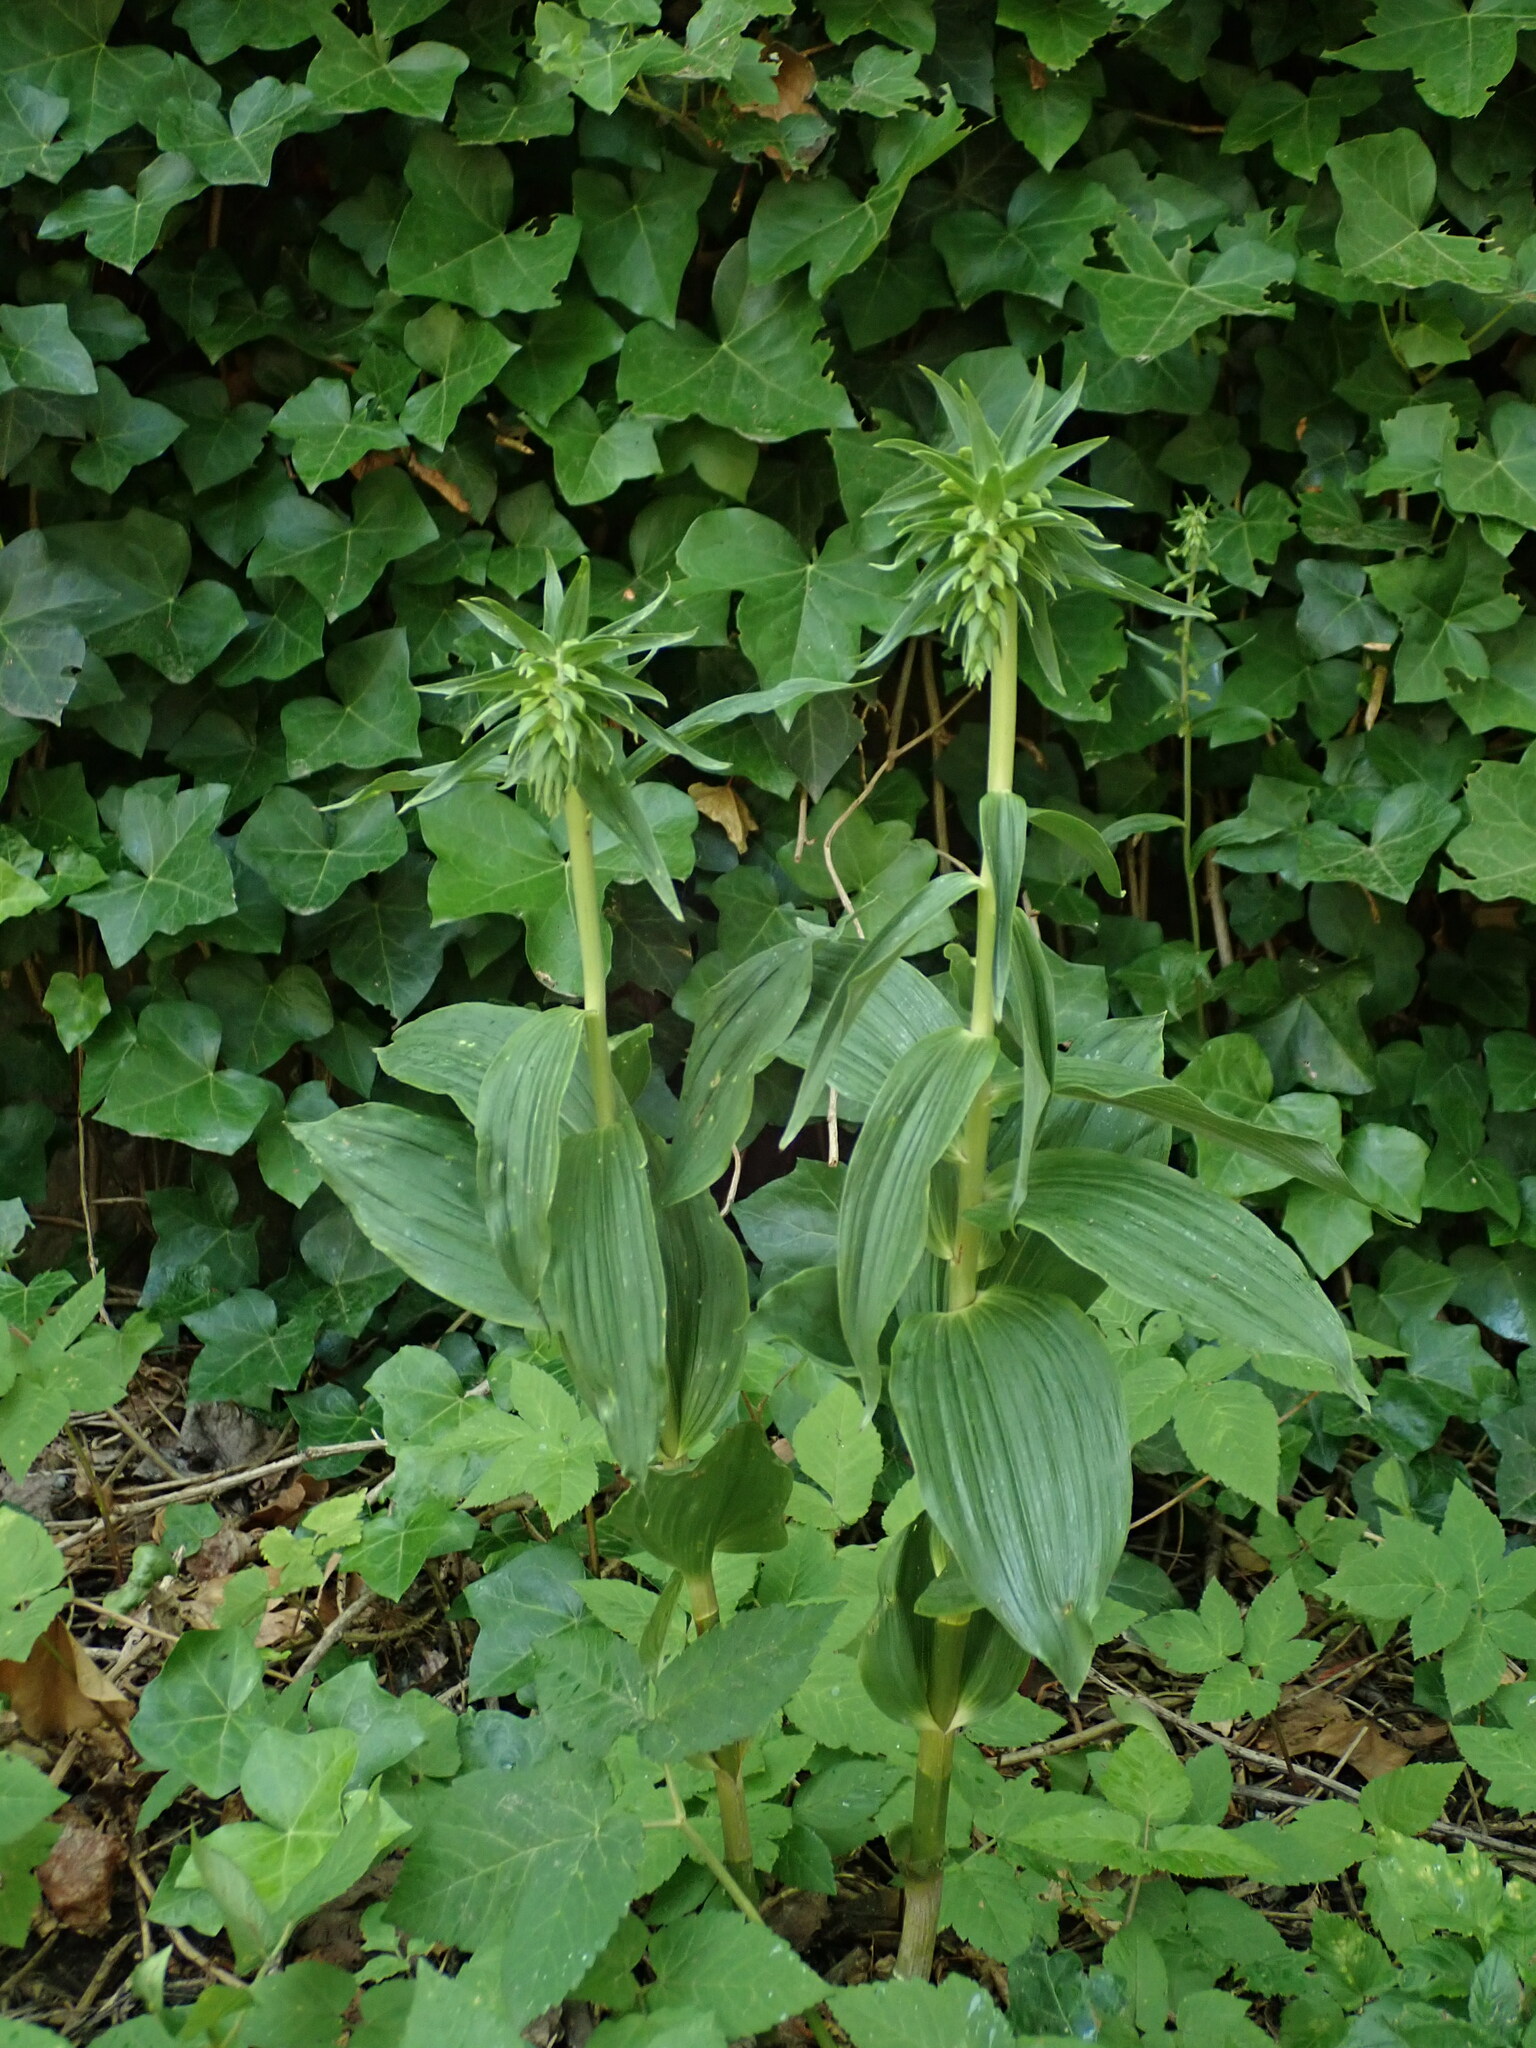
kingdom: Plantae
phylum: Tracheophyta
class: Liliopsida
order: Asparagales
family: Orchidaceae
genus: Epipactis
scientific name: Epipactis helleborine
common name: Broad-leaved helleborine
